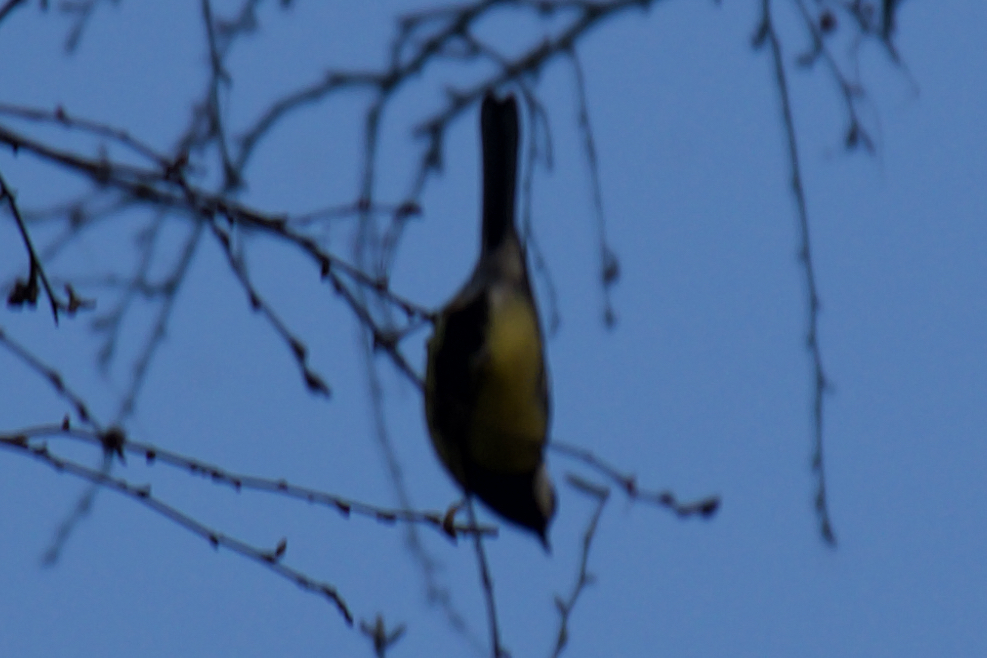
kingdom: Animalia
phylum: Chordata
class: Aves
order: Passeriformes
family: Paridae
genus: Parus
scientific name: Parus major
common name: Great tit
